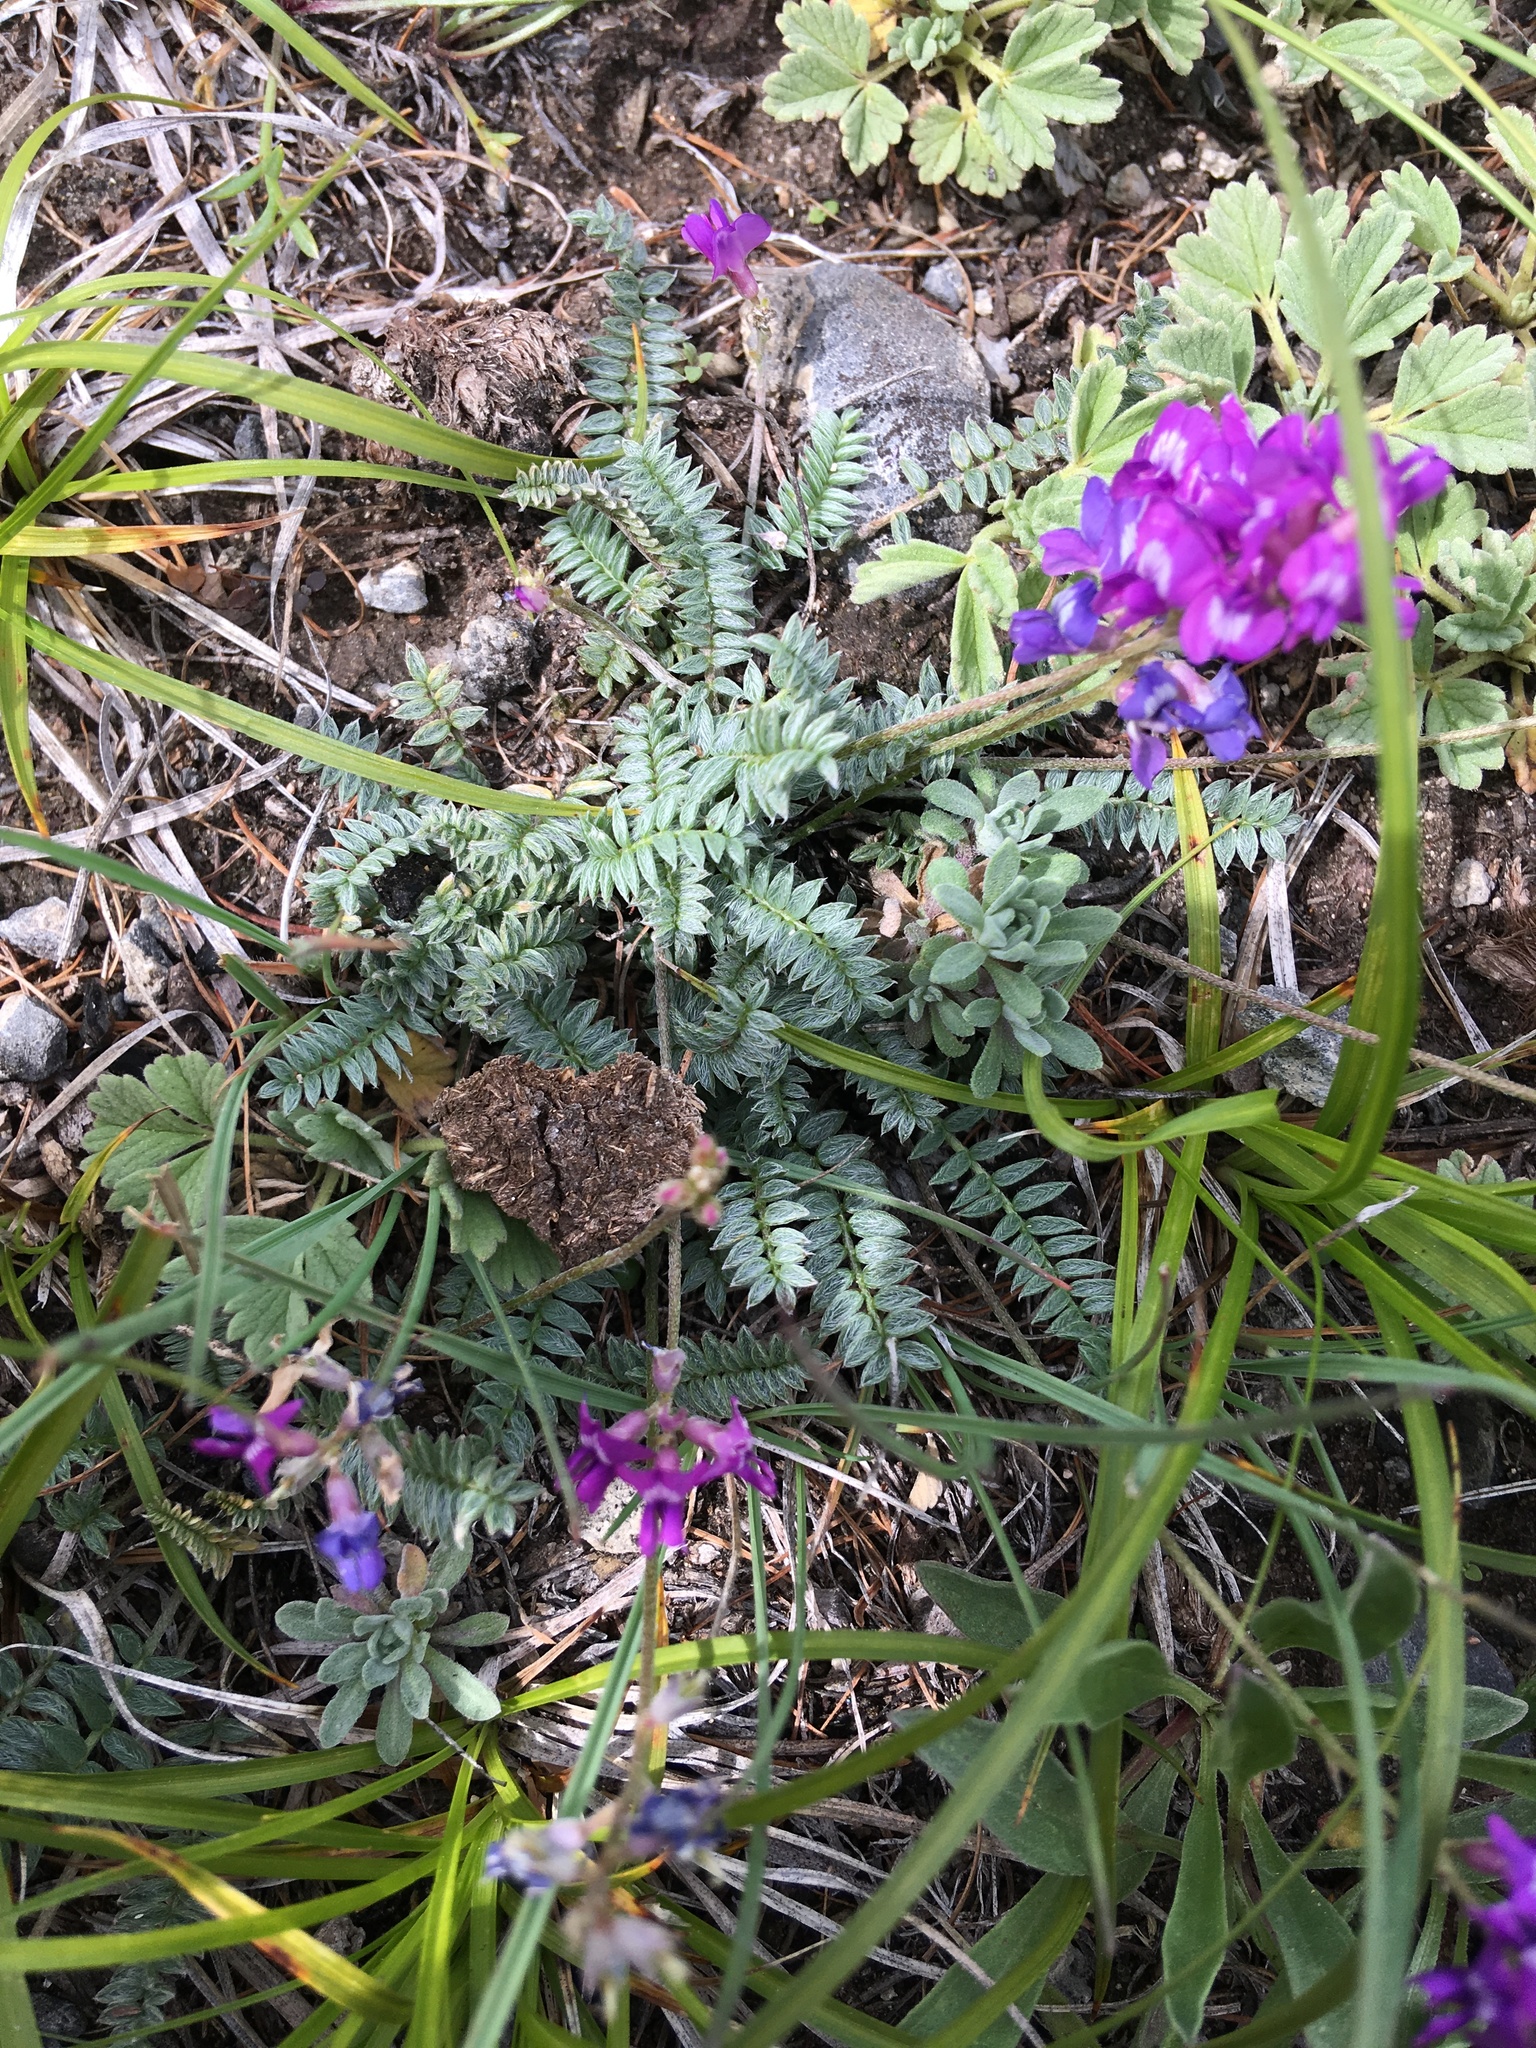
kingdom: Plantae
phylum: Tracheophyta
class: Magnoliopsida
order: Fabales
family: Fabaceae
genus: Oxytropis
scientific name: Oxytropis coerulea
